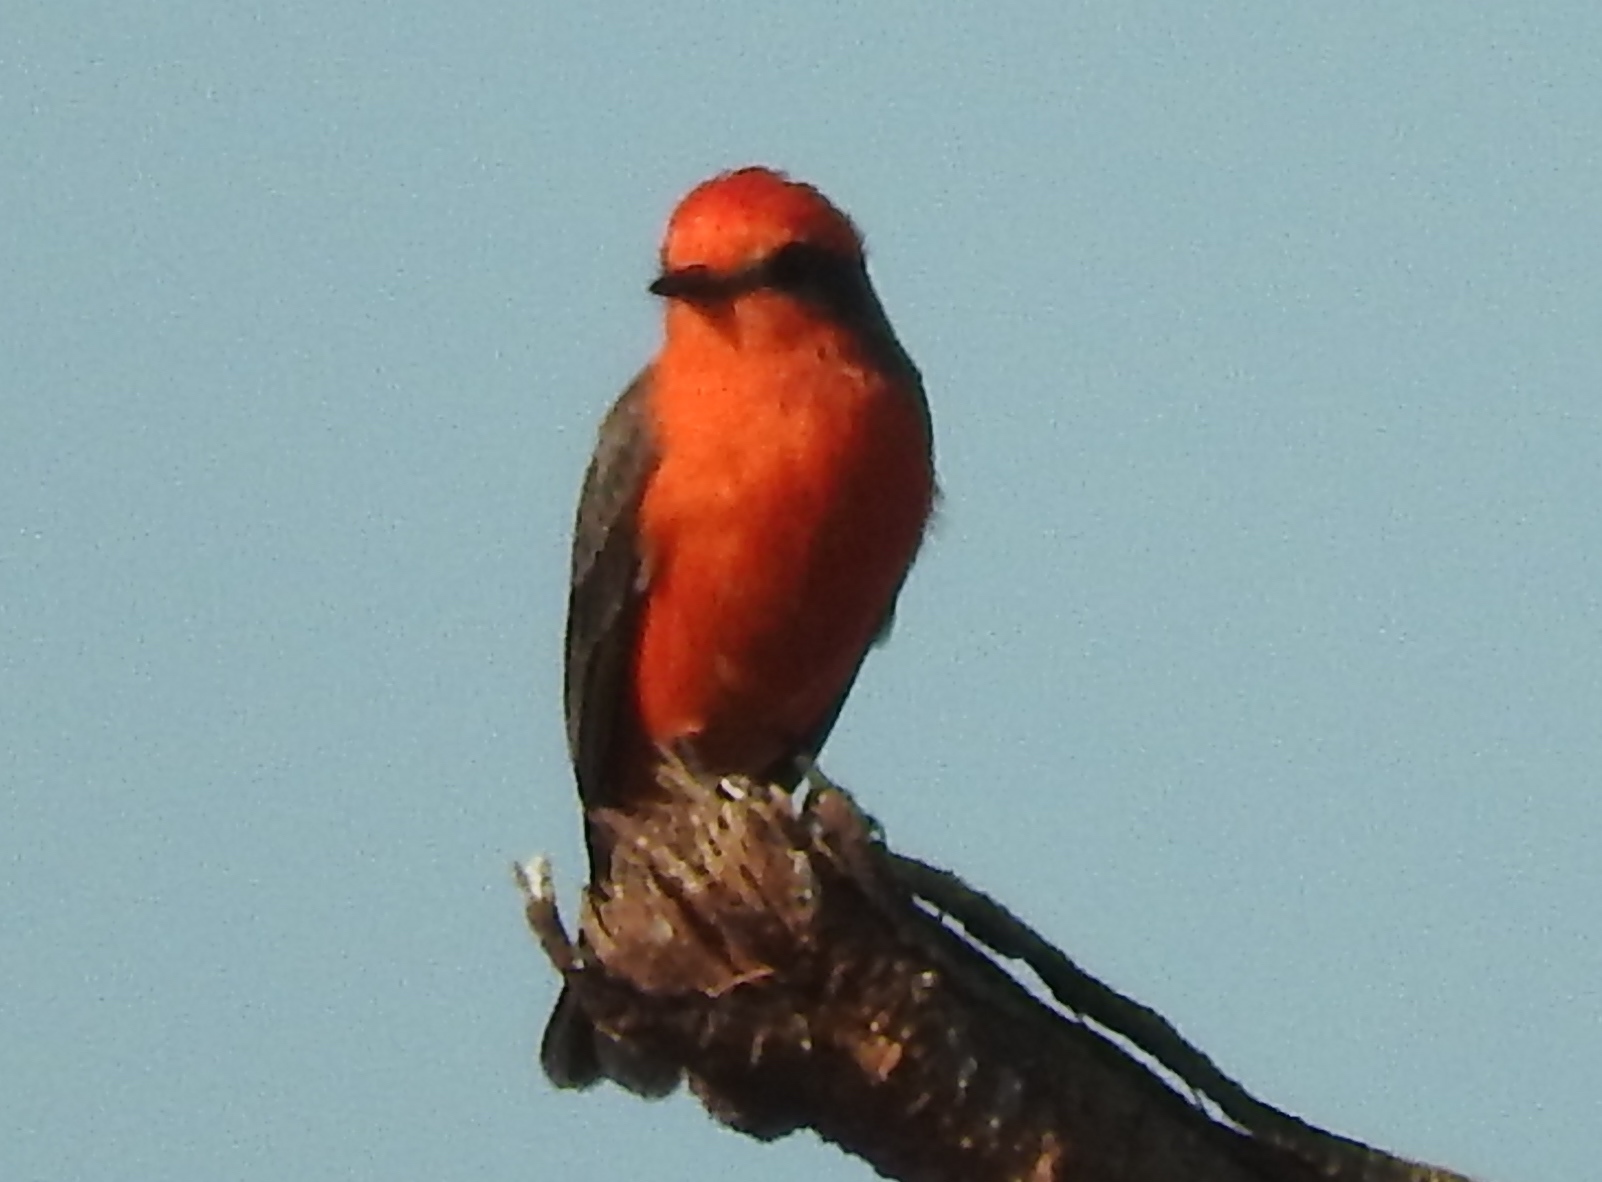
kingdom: Animalia
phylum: Chordata
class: Aves
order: Passeriformes
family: Tyrannidae
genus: Pyrocephalus
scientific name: Pyrocephalus rubinus
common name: Vermilion flycatcher
